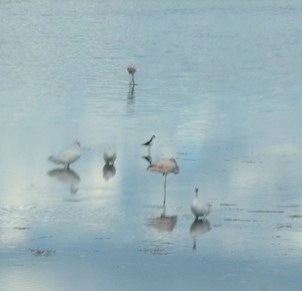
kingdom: Animalia
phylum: Chordata
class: Aves
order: Charadriiformes
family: Recurvirostridae
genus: Himantopus
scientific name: Himantopus mexicanus
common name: Black-necked stilt
